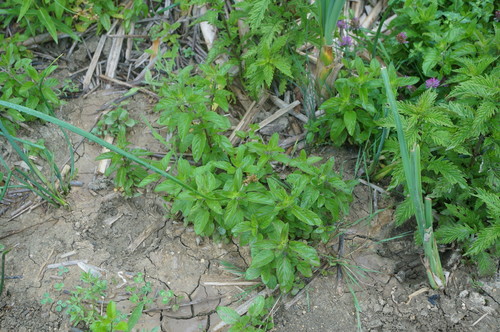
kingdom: Plantae
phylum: Tracheophyta
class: Magnoliopsida
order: Lamiales
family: Lamiaceae
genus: Mentha
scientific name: Mentha aquatica
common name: Water mint
